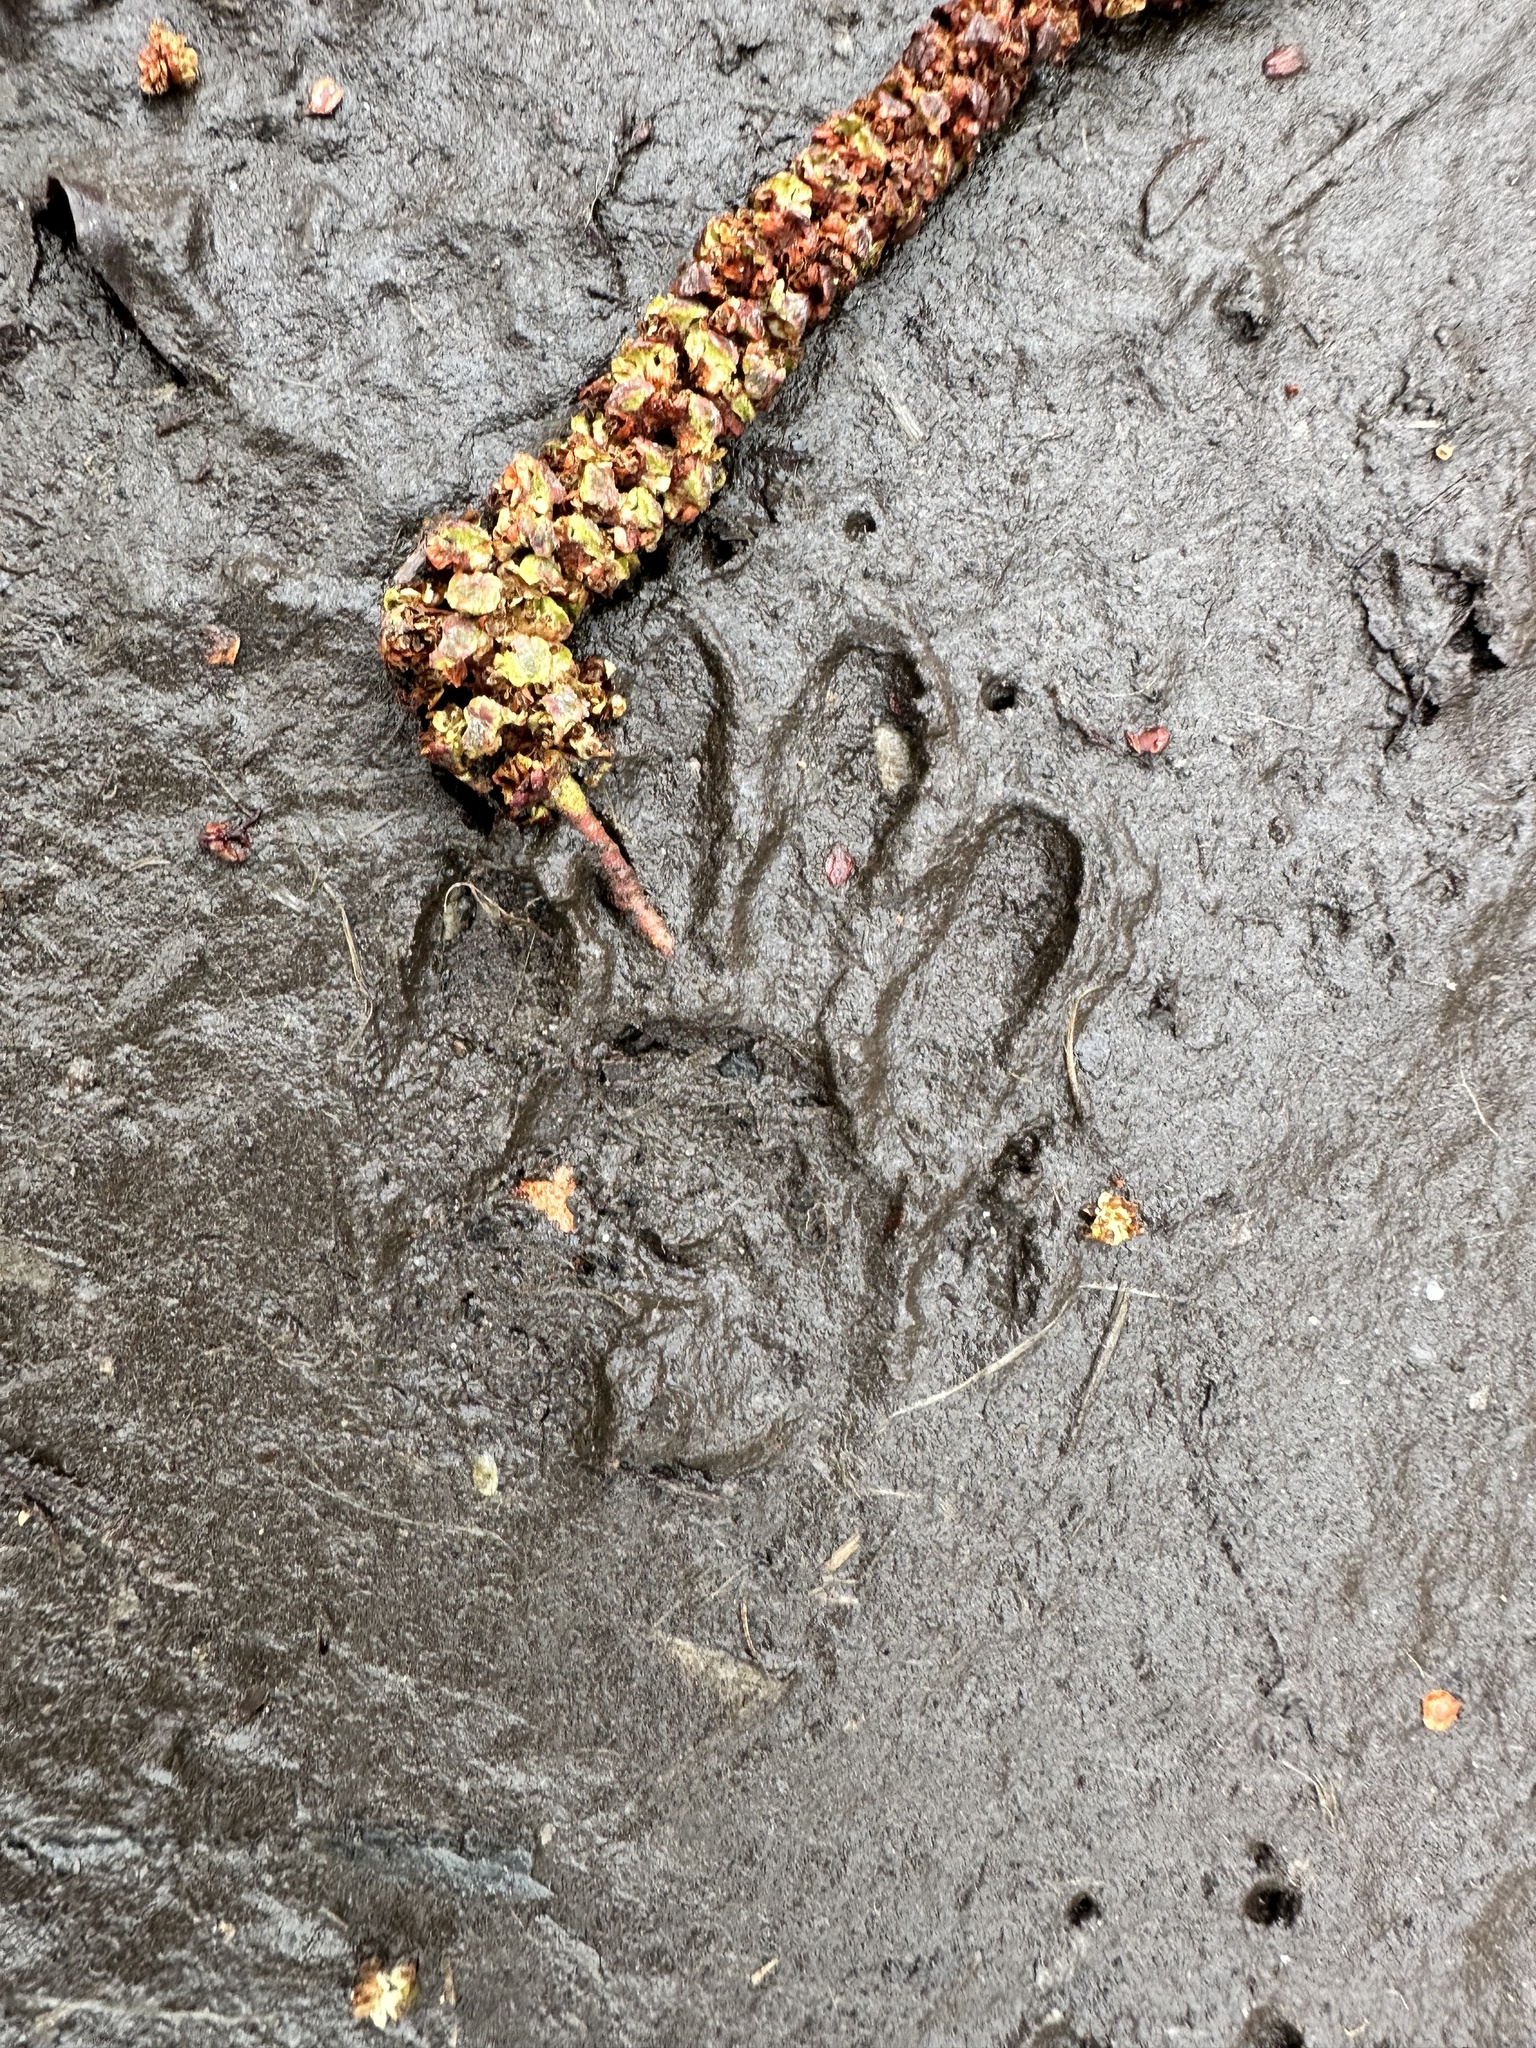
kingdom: Animalia
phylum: Chordata
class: Mammalia
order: Carnivora
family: Procyonidae
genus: Procyon
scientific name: Procyon lotor
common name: Raccoon
